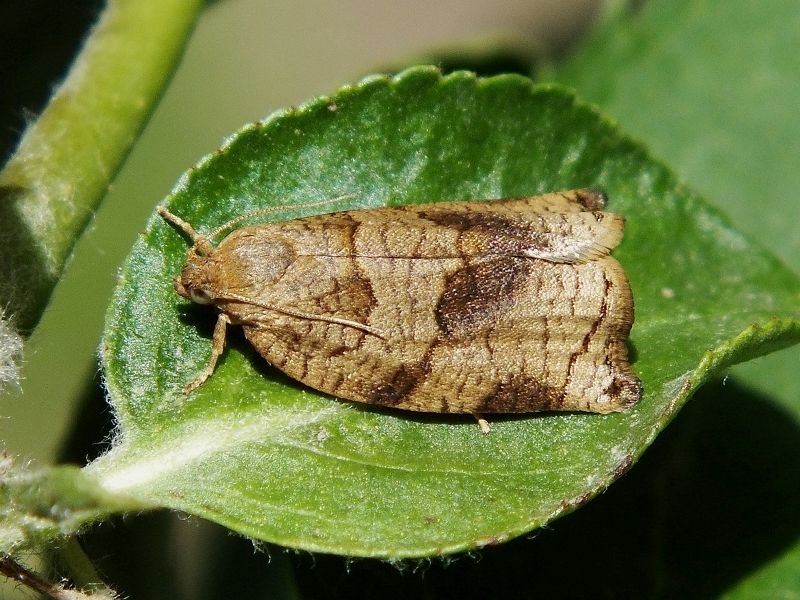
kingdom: Animalia
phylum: Arthropoda
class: Insecta
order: Lepidoptera
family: Tortricidae
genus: Archips
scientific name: Archips rosana
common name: Rose tortrix
